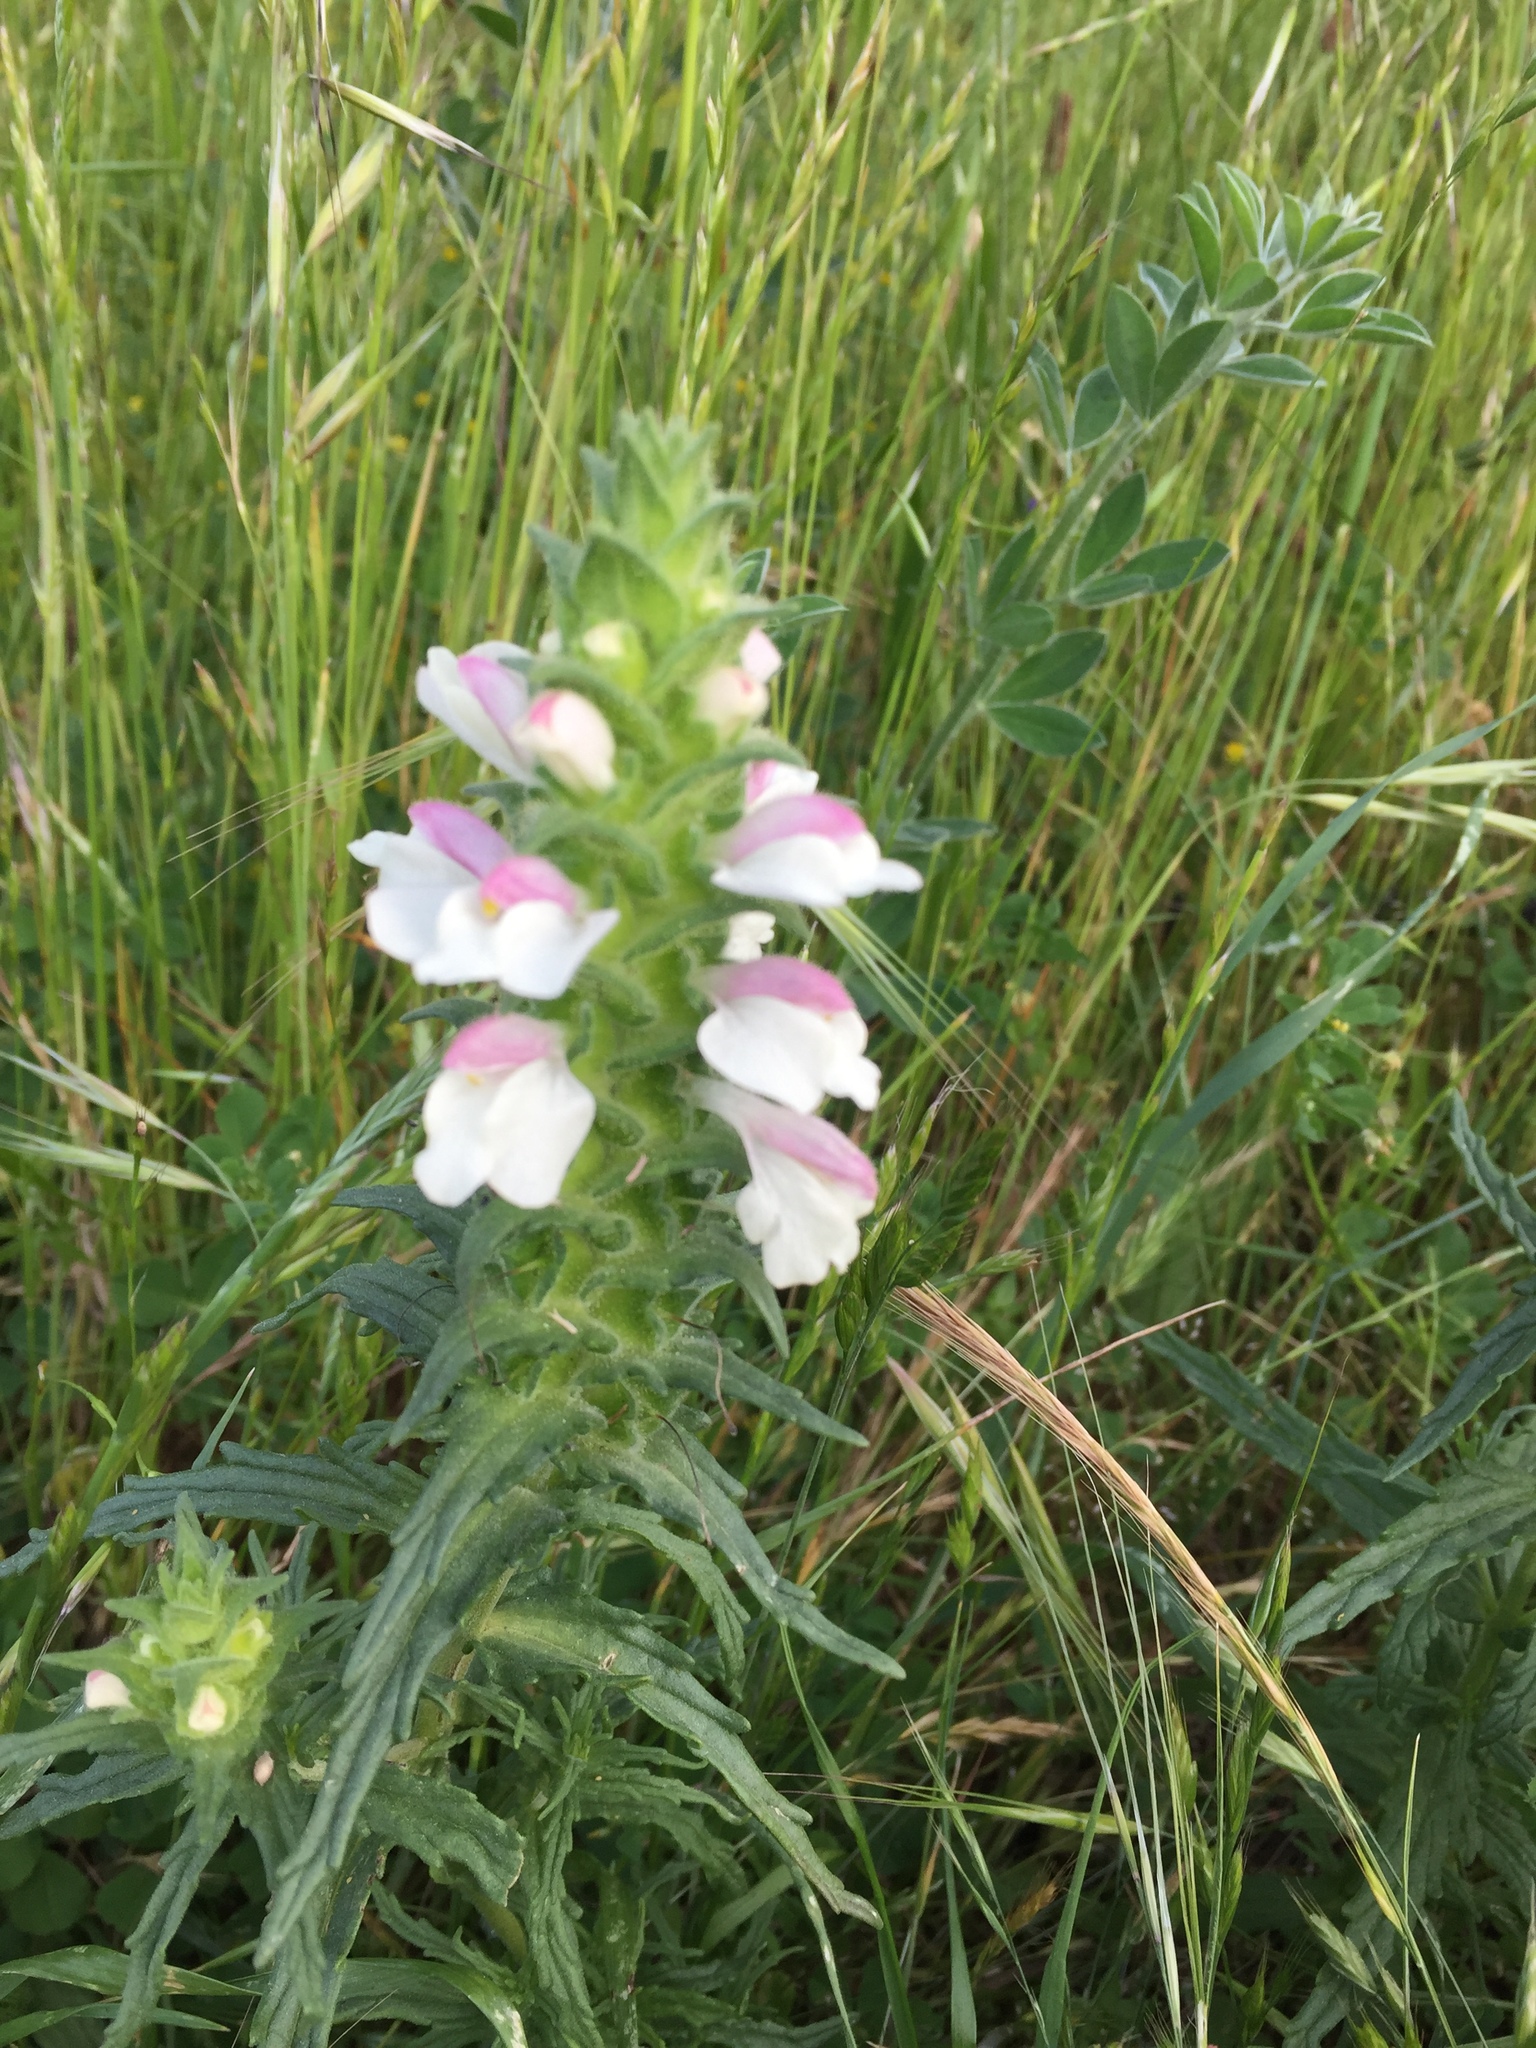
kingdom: Plantae
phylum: Tracheophyta
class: Magnoliopsida
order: Lamiales
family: Orobanchaceae
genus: Bellardia
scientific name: Bellardia trixago
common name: Mediterranean lineseed
